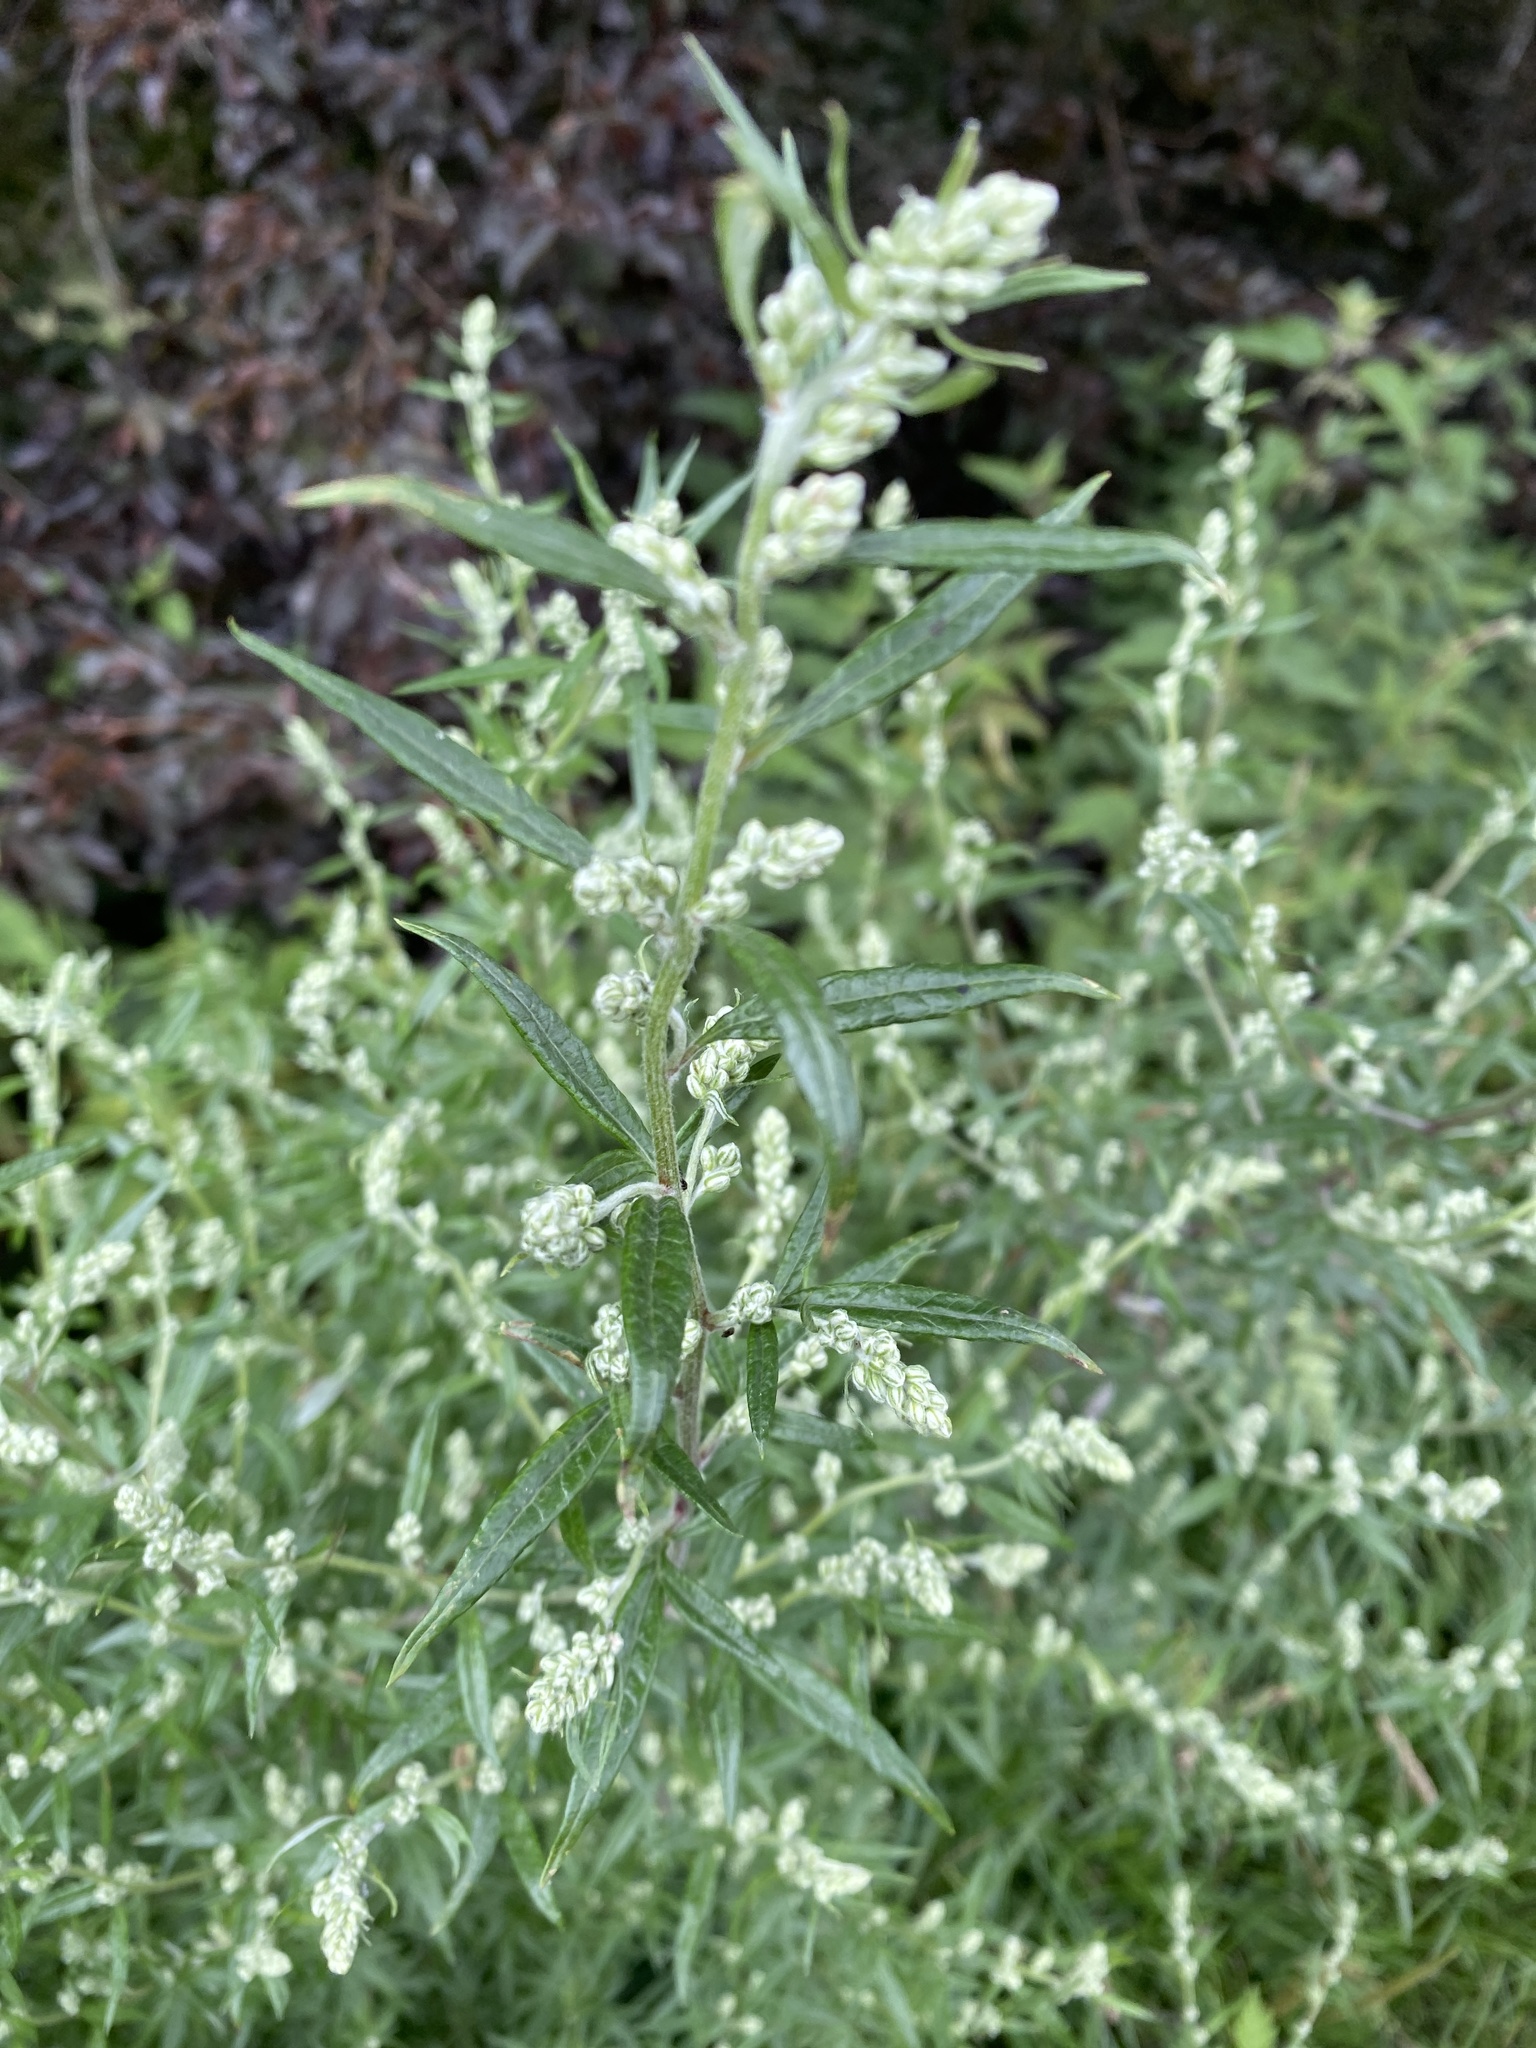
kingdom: Plantae
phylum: Tracheophyta
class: Magnoliopsida
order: Asterales
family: Asteraceae
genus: Artemisia
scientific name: Artemisia vulgaris
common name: Mugwort
